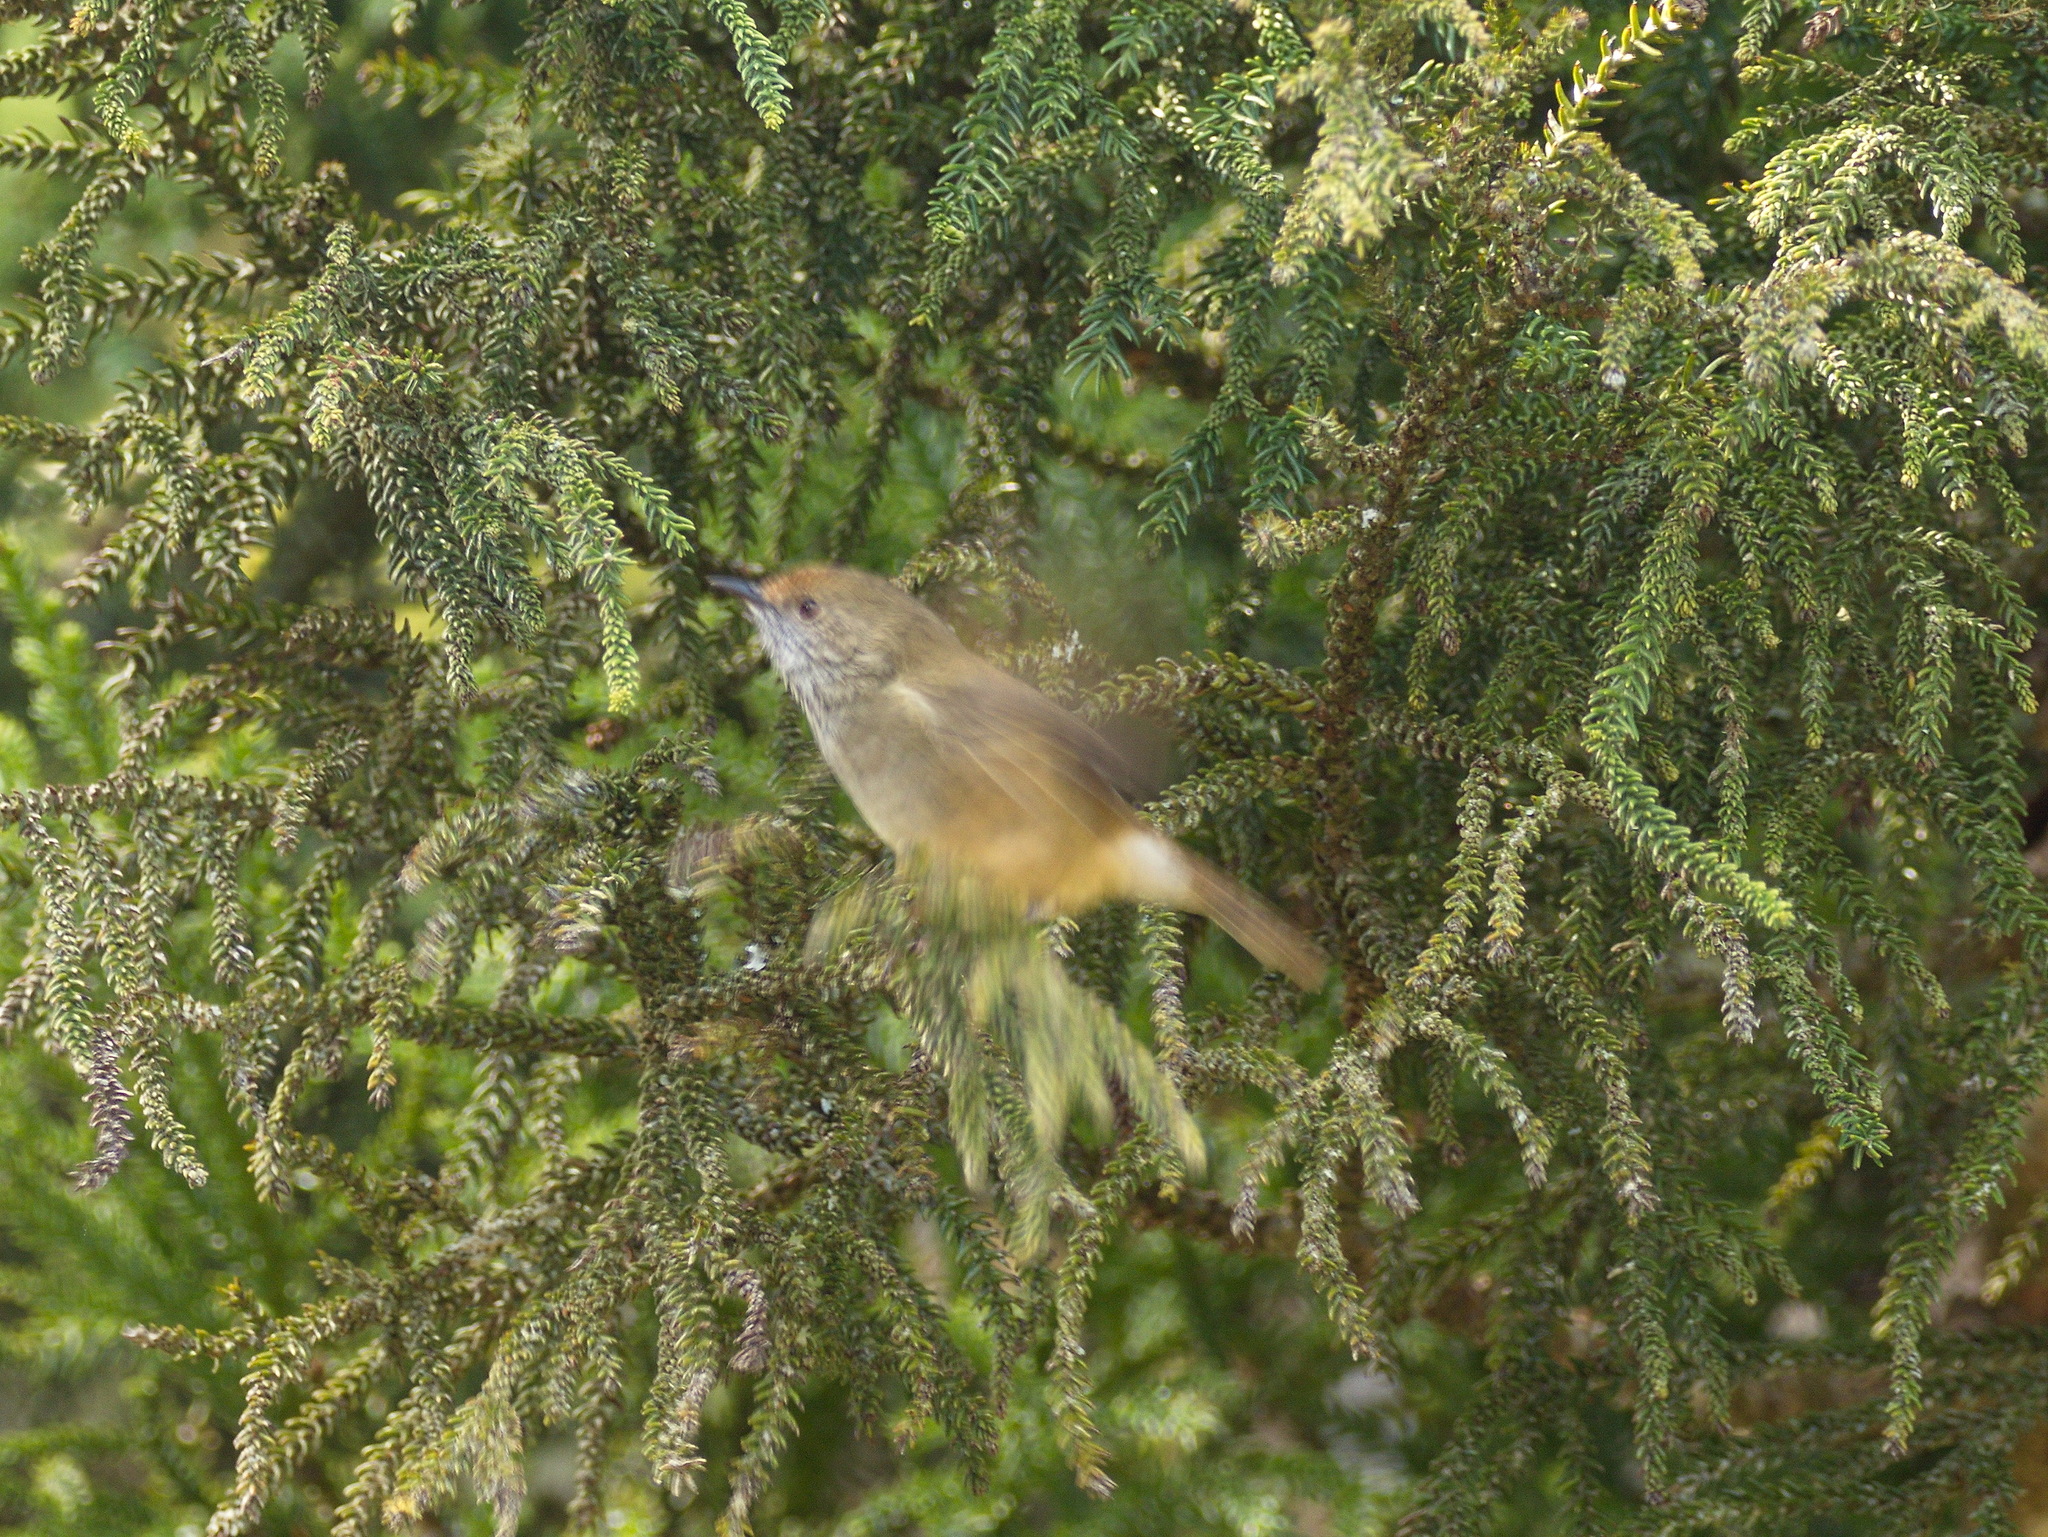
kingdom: Animalia
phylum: Chordata
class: Aves
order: Passeriformes
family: Acanthizidae
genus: Acanthiza
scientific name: Acanthiza pusilla
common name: Brown thornbill
